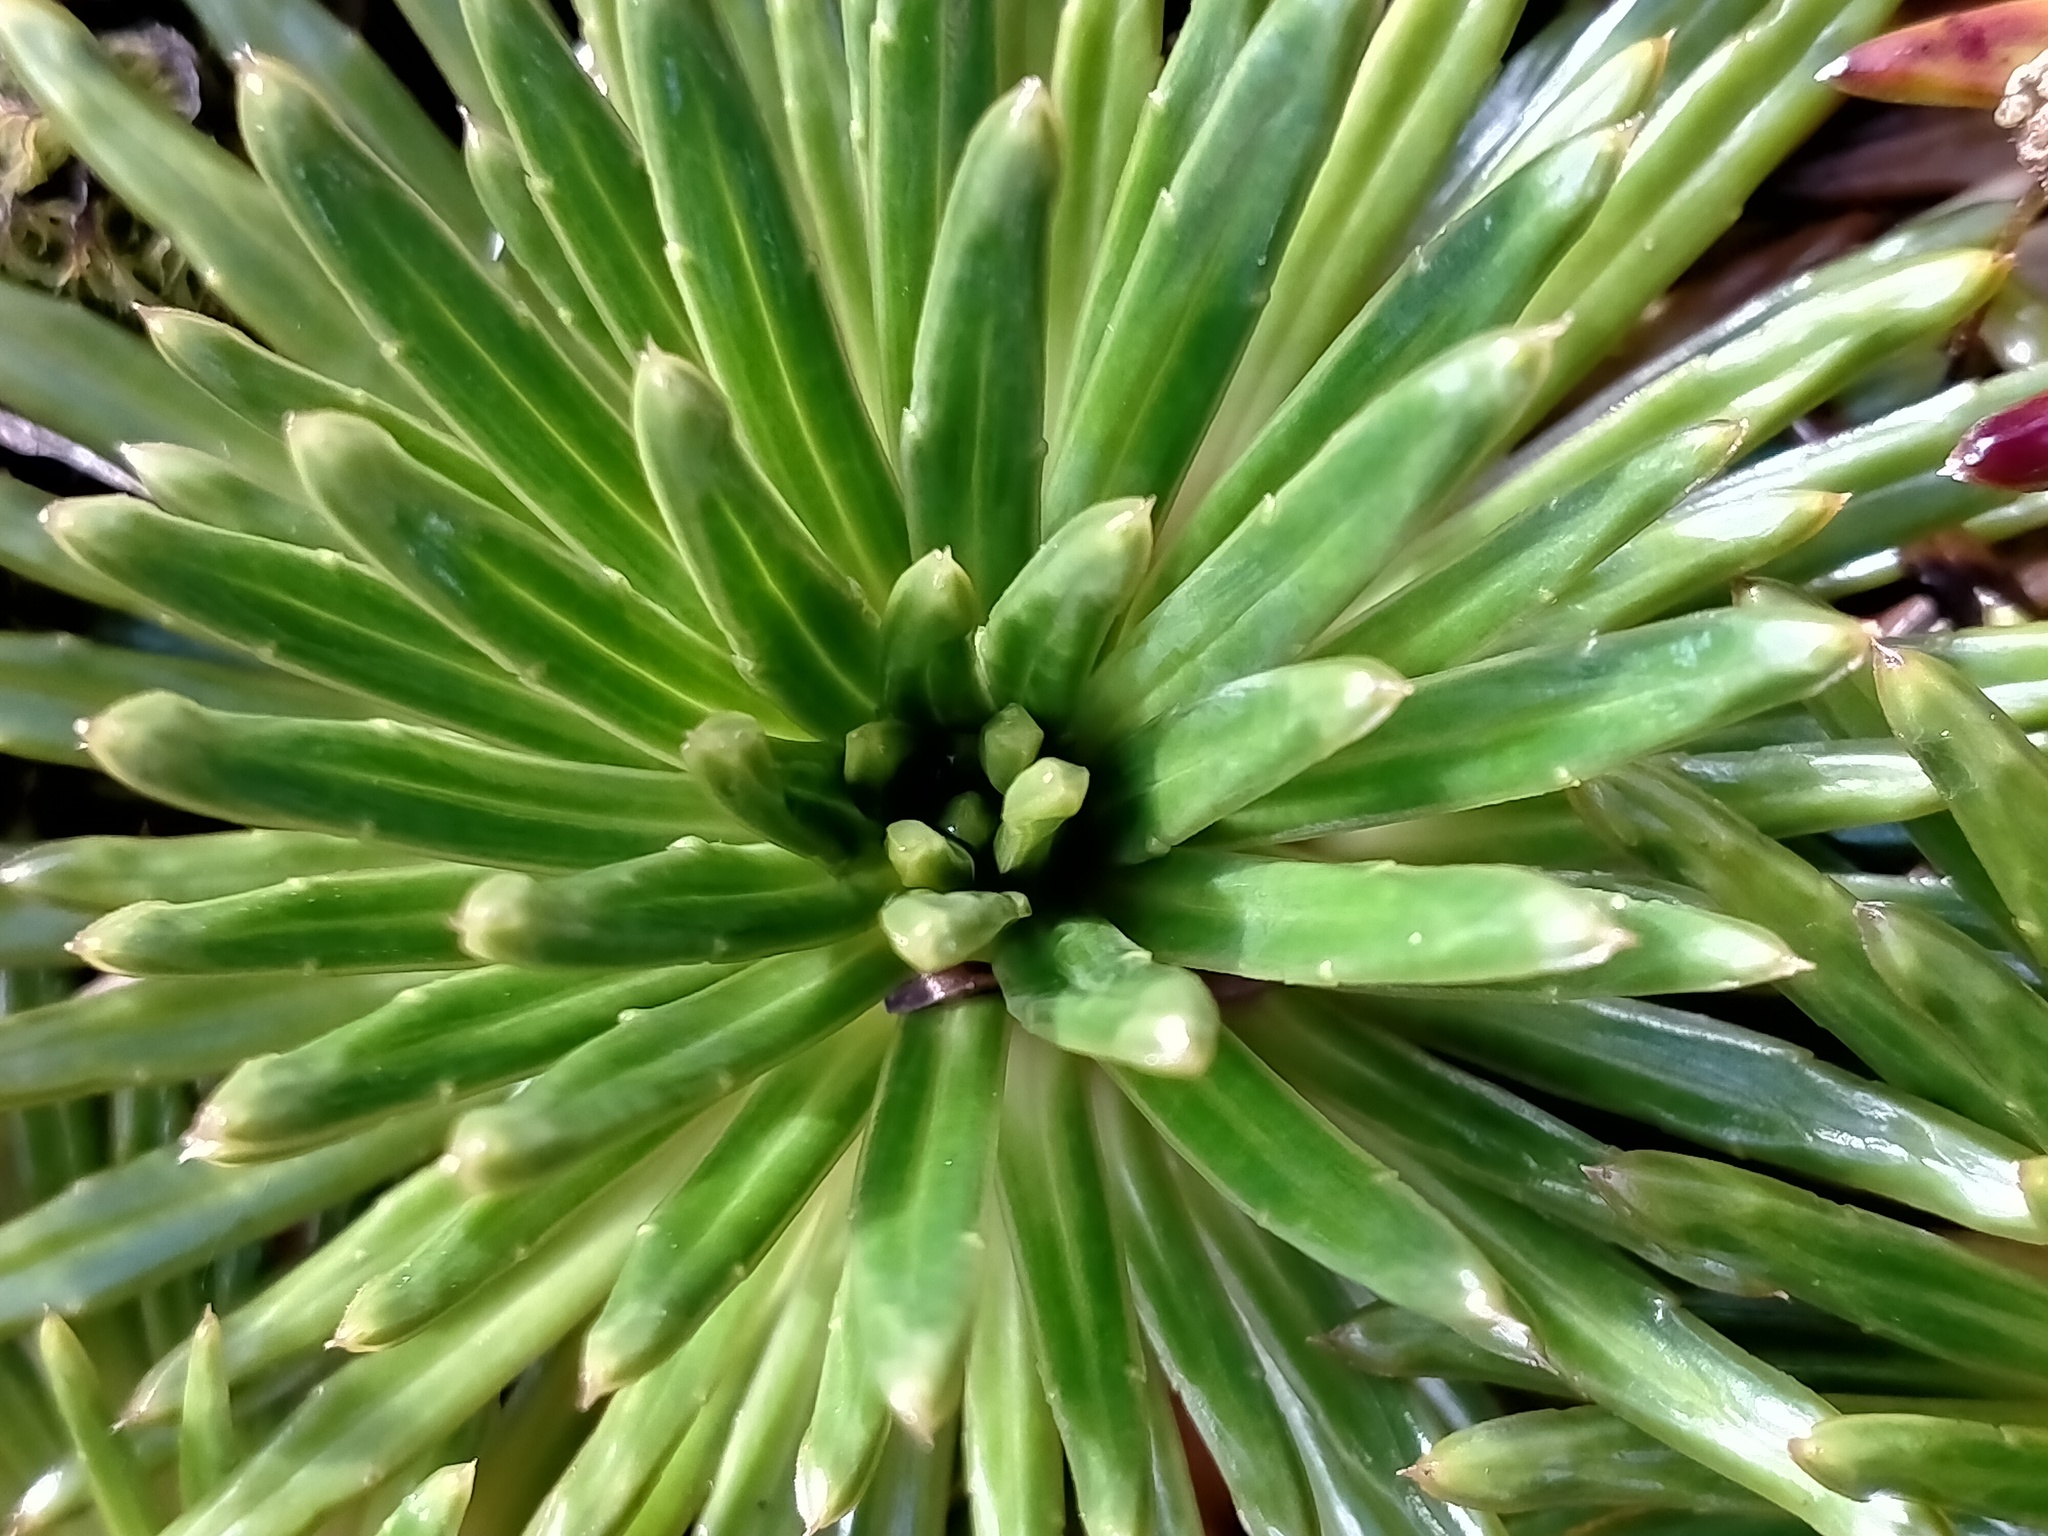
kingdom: Plantae
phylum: Tracheophyta
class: Magnoliopsida
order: Asterales
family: Asteraceae
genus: Damnamenia
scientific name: Damnamenia vernicosa
